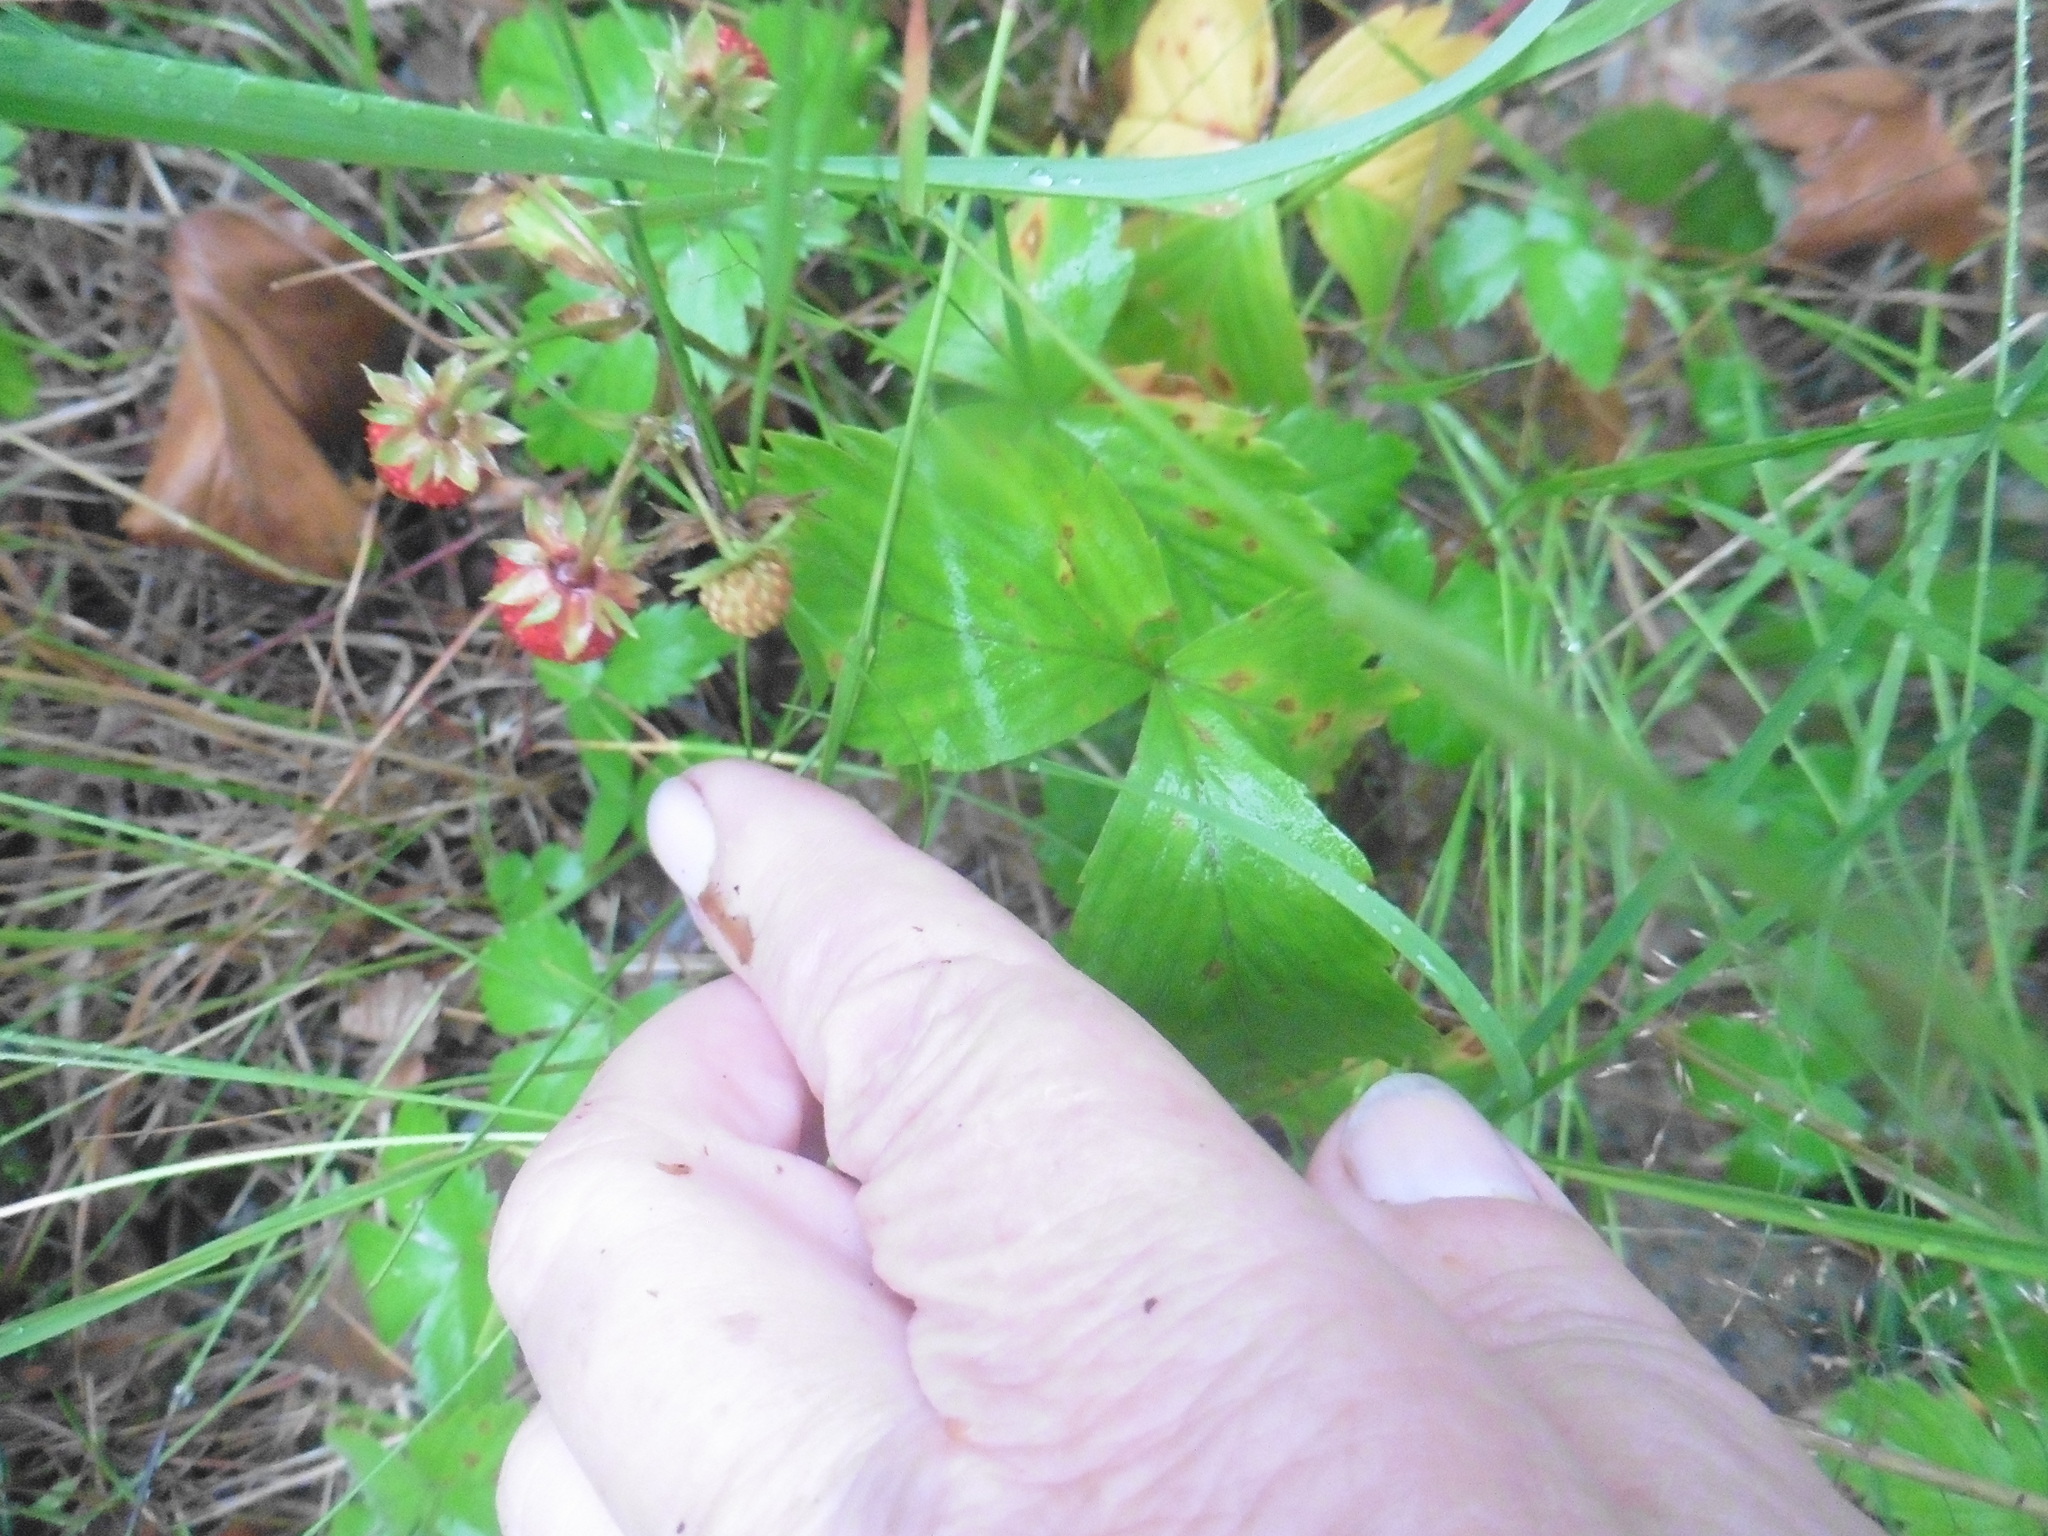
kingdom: Plantae
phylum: Tracheophyta
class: Magnoliopsida
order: Rosales
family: Rosaceae
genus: Fragaria
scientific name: Fragaria vesca
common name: Wild strawberry
